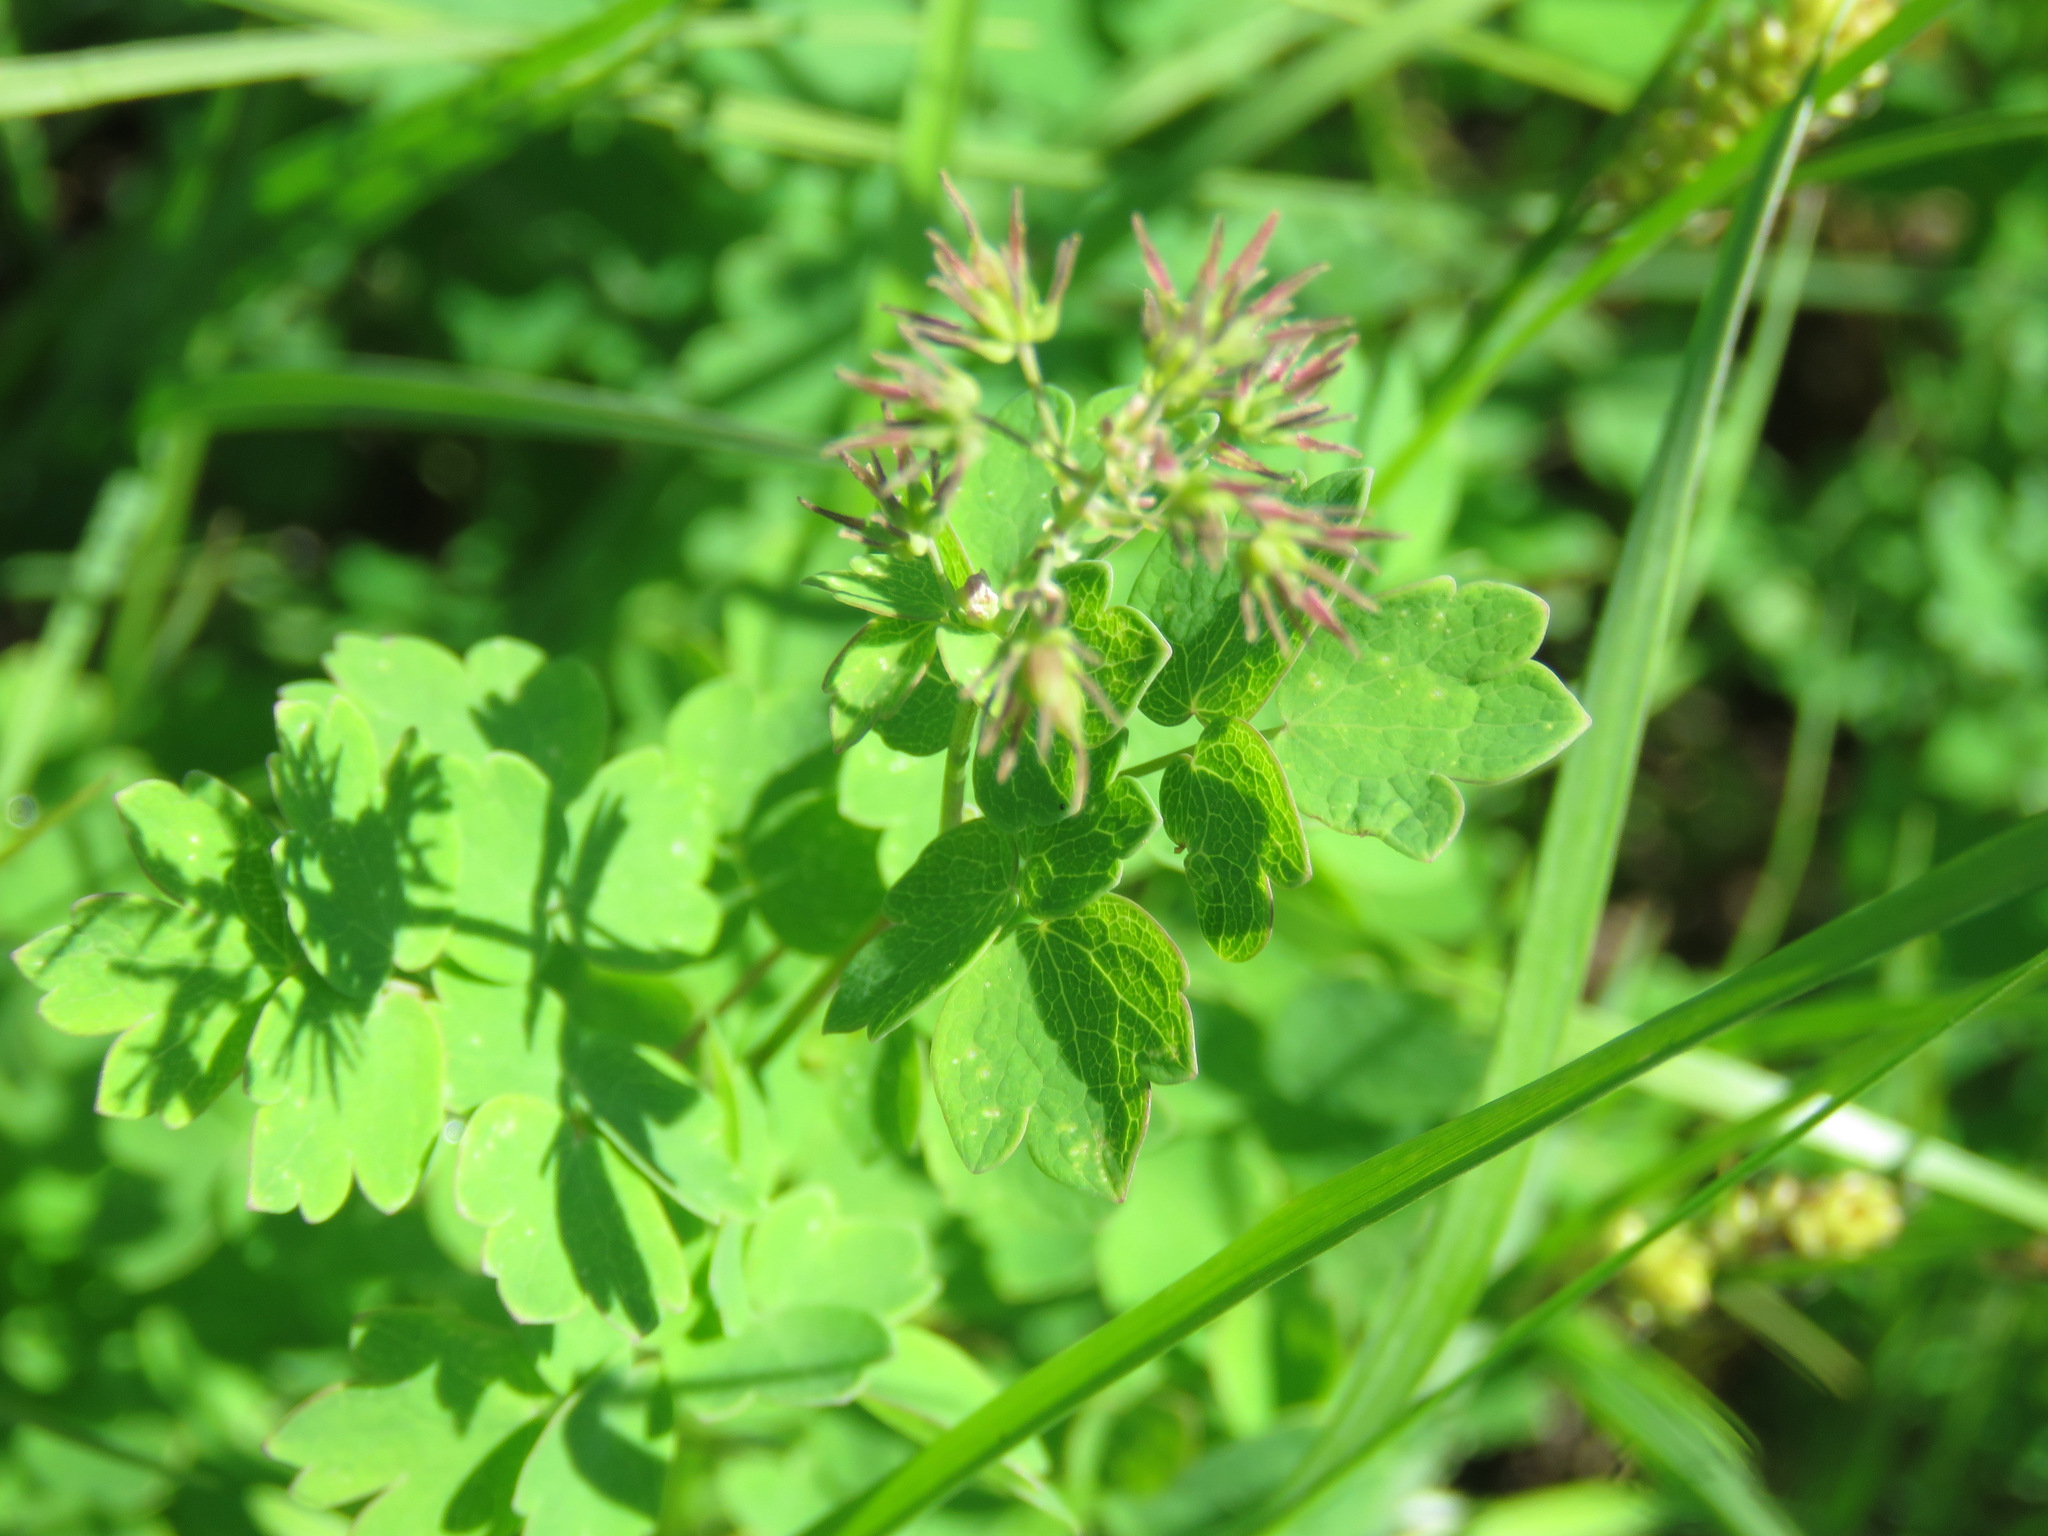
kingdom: Plantae
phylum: Tracheophyta
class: Magnoliopsida
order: Ranunculales
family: Ranunculaceae
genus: Thalictrum
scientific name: Thalictrum occidentale
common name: Western meadow-rue
